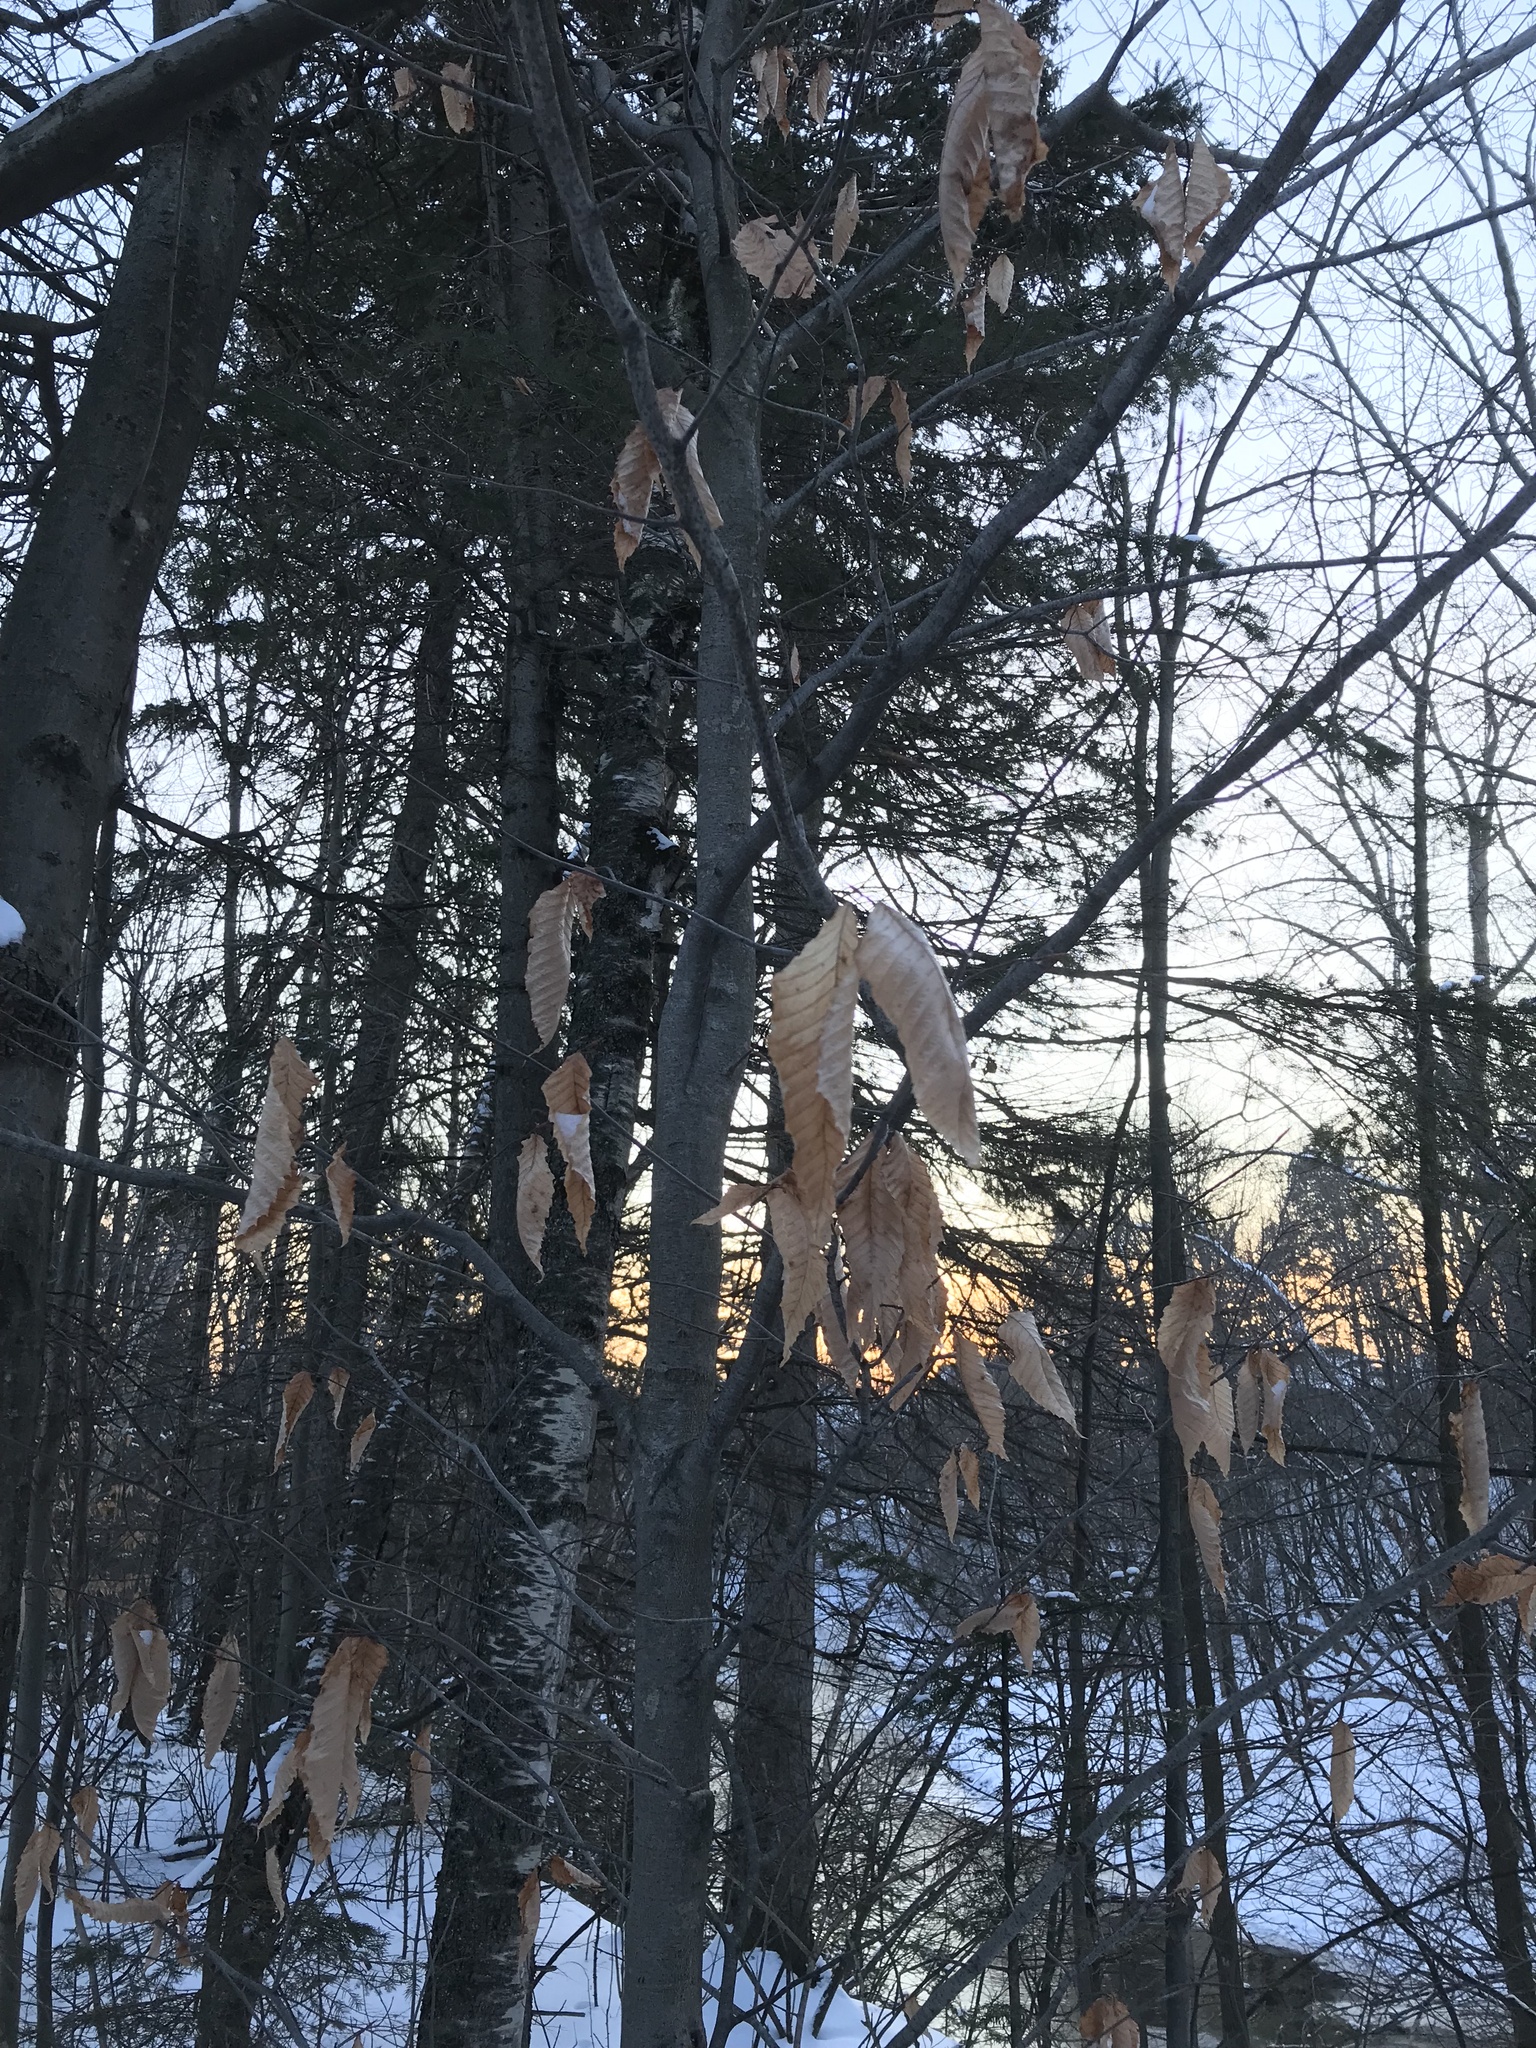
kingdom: Plantae
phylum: Tracheophyta
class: Magnoliopsida
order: Fagales
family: Fagaceae
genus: Fagus
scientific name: Fagus grandifolia
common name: American beech
